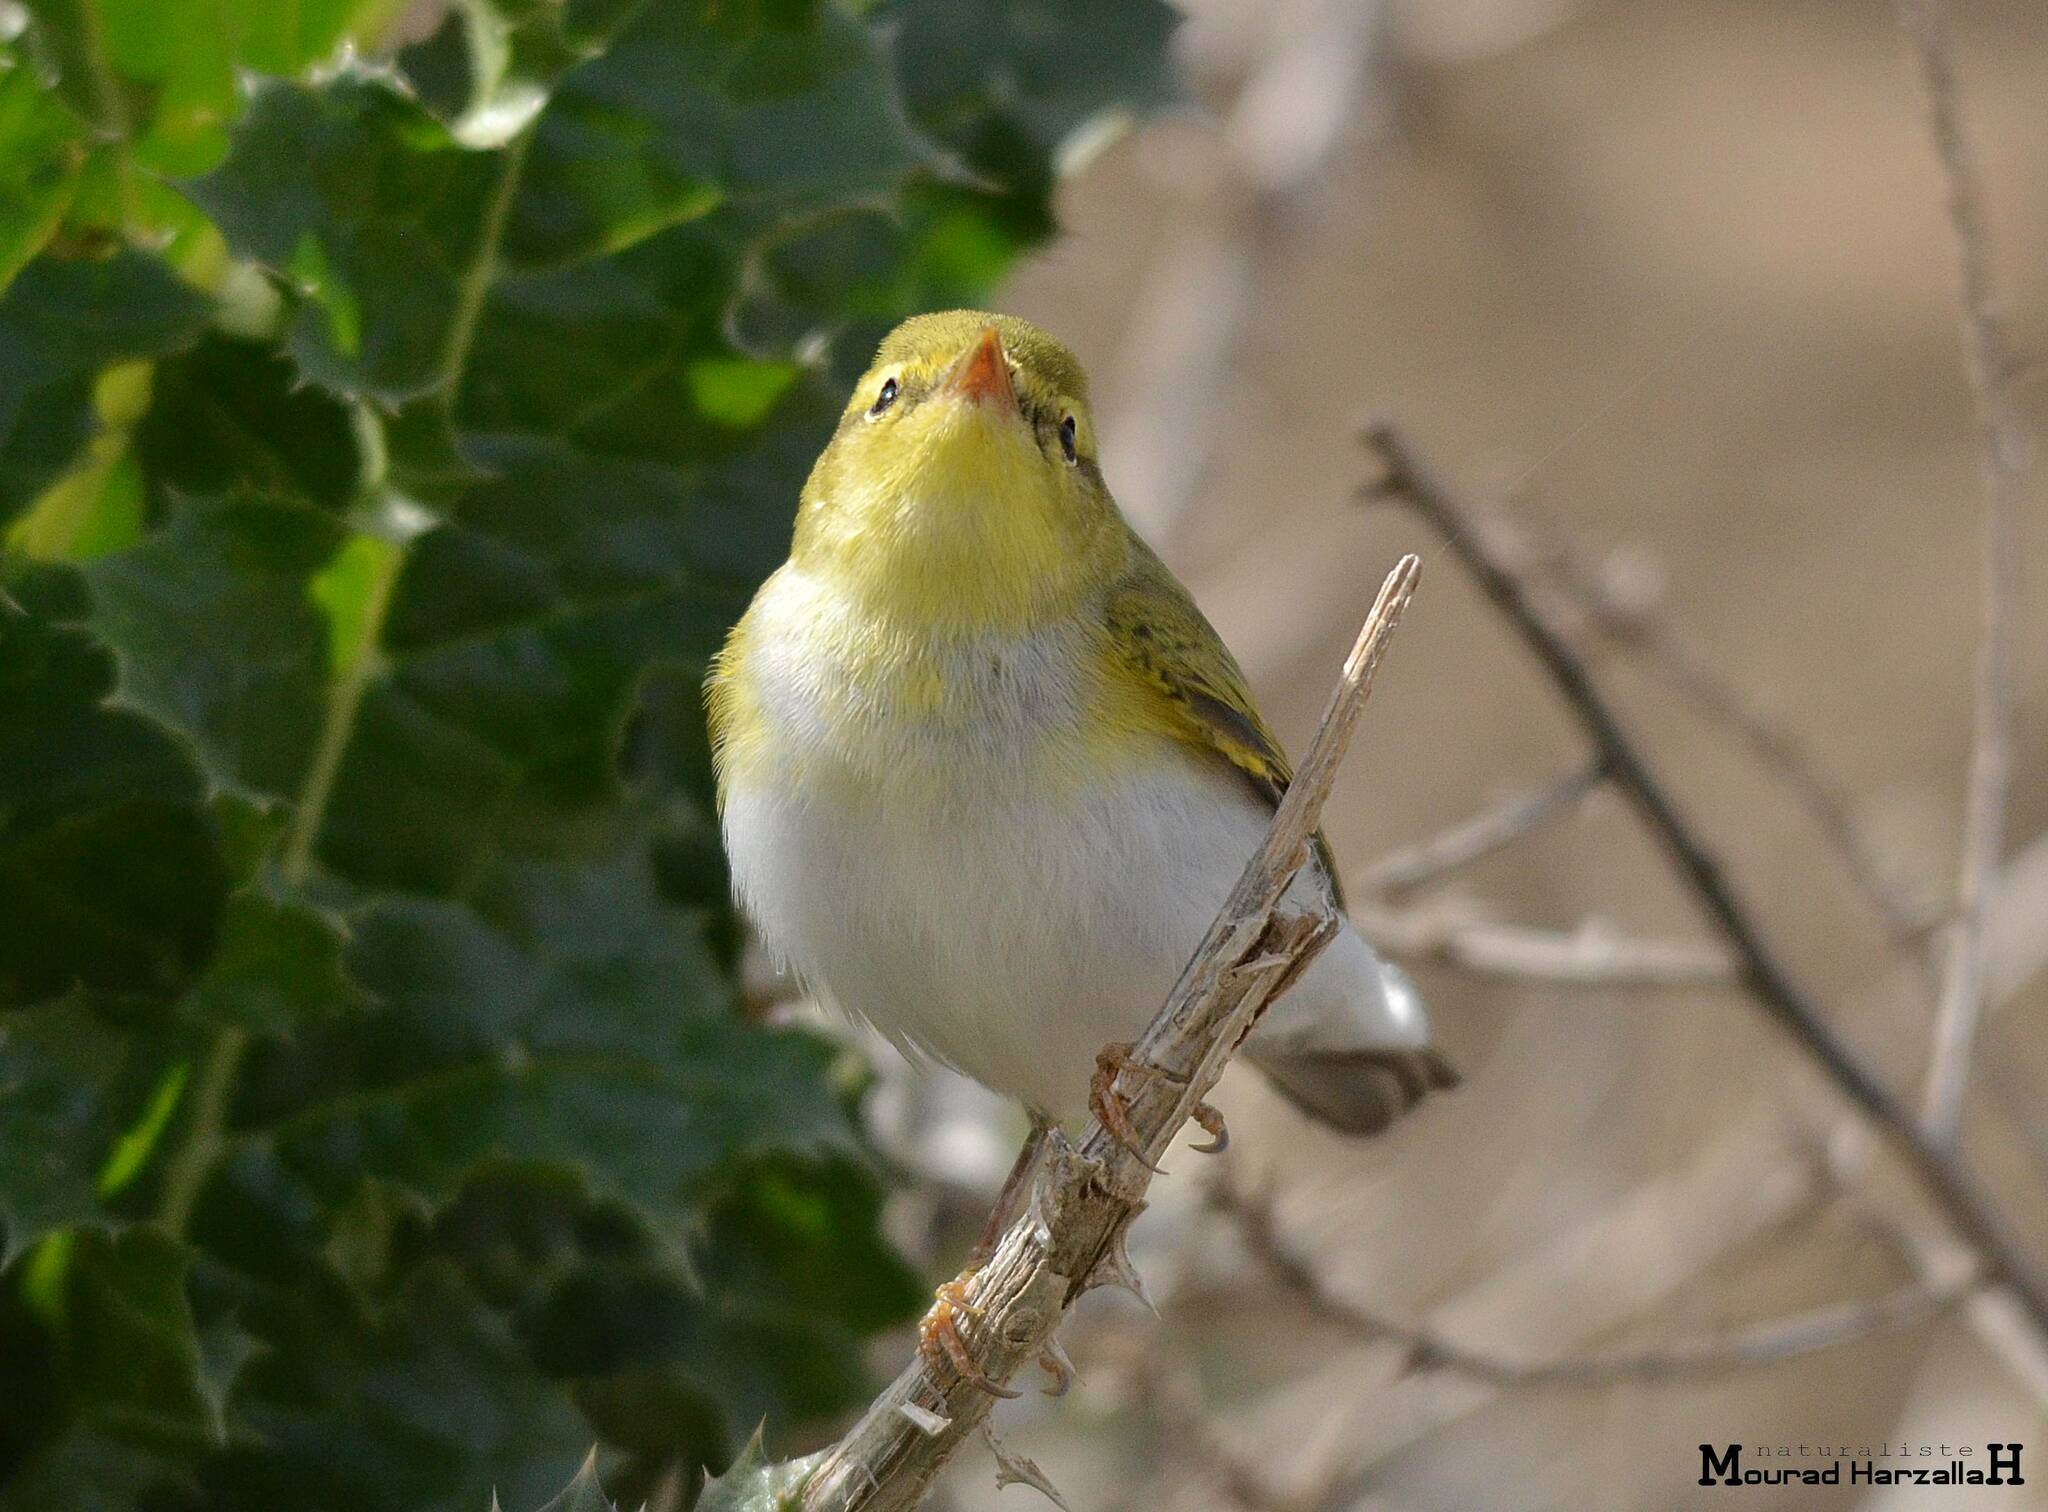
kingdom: Animalia
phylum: Chordata
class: Aves
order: Passeriformes
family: Phylloscopidae
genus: Phylloscopus
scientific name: Phylloscopus sibillatrix
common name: Wood warbler
